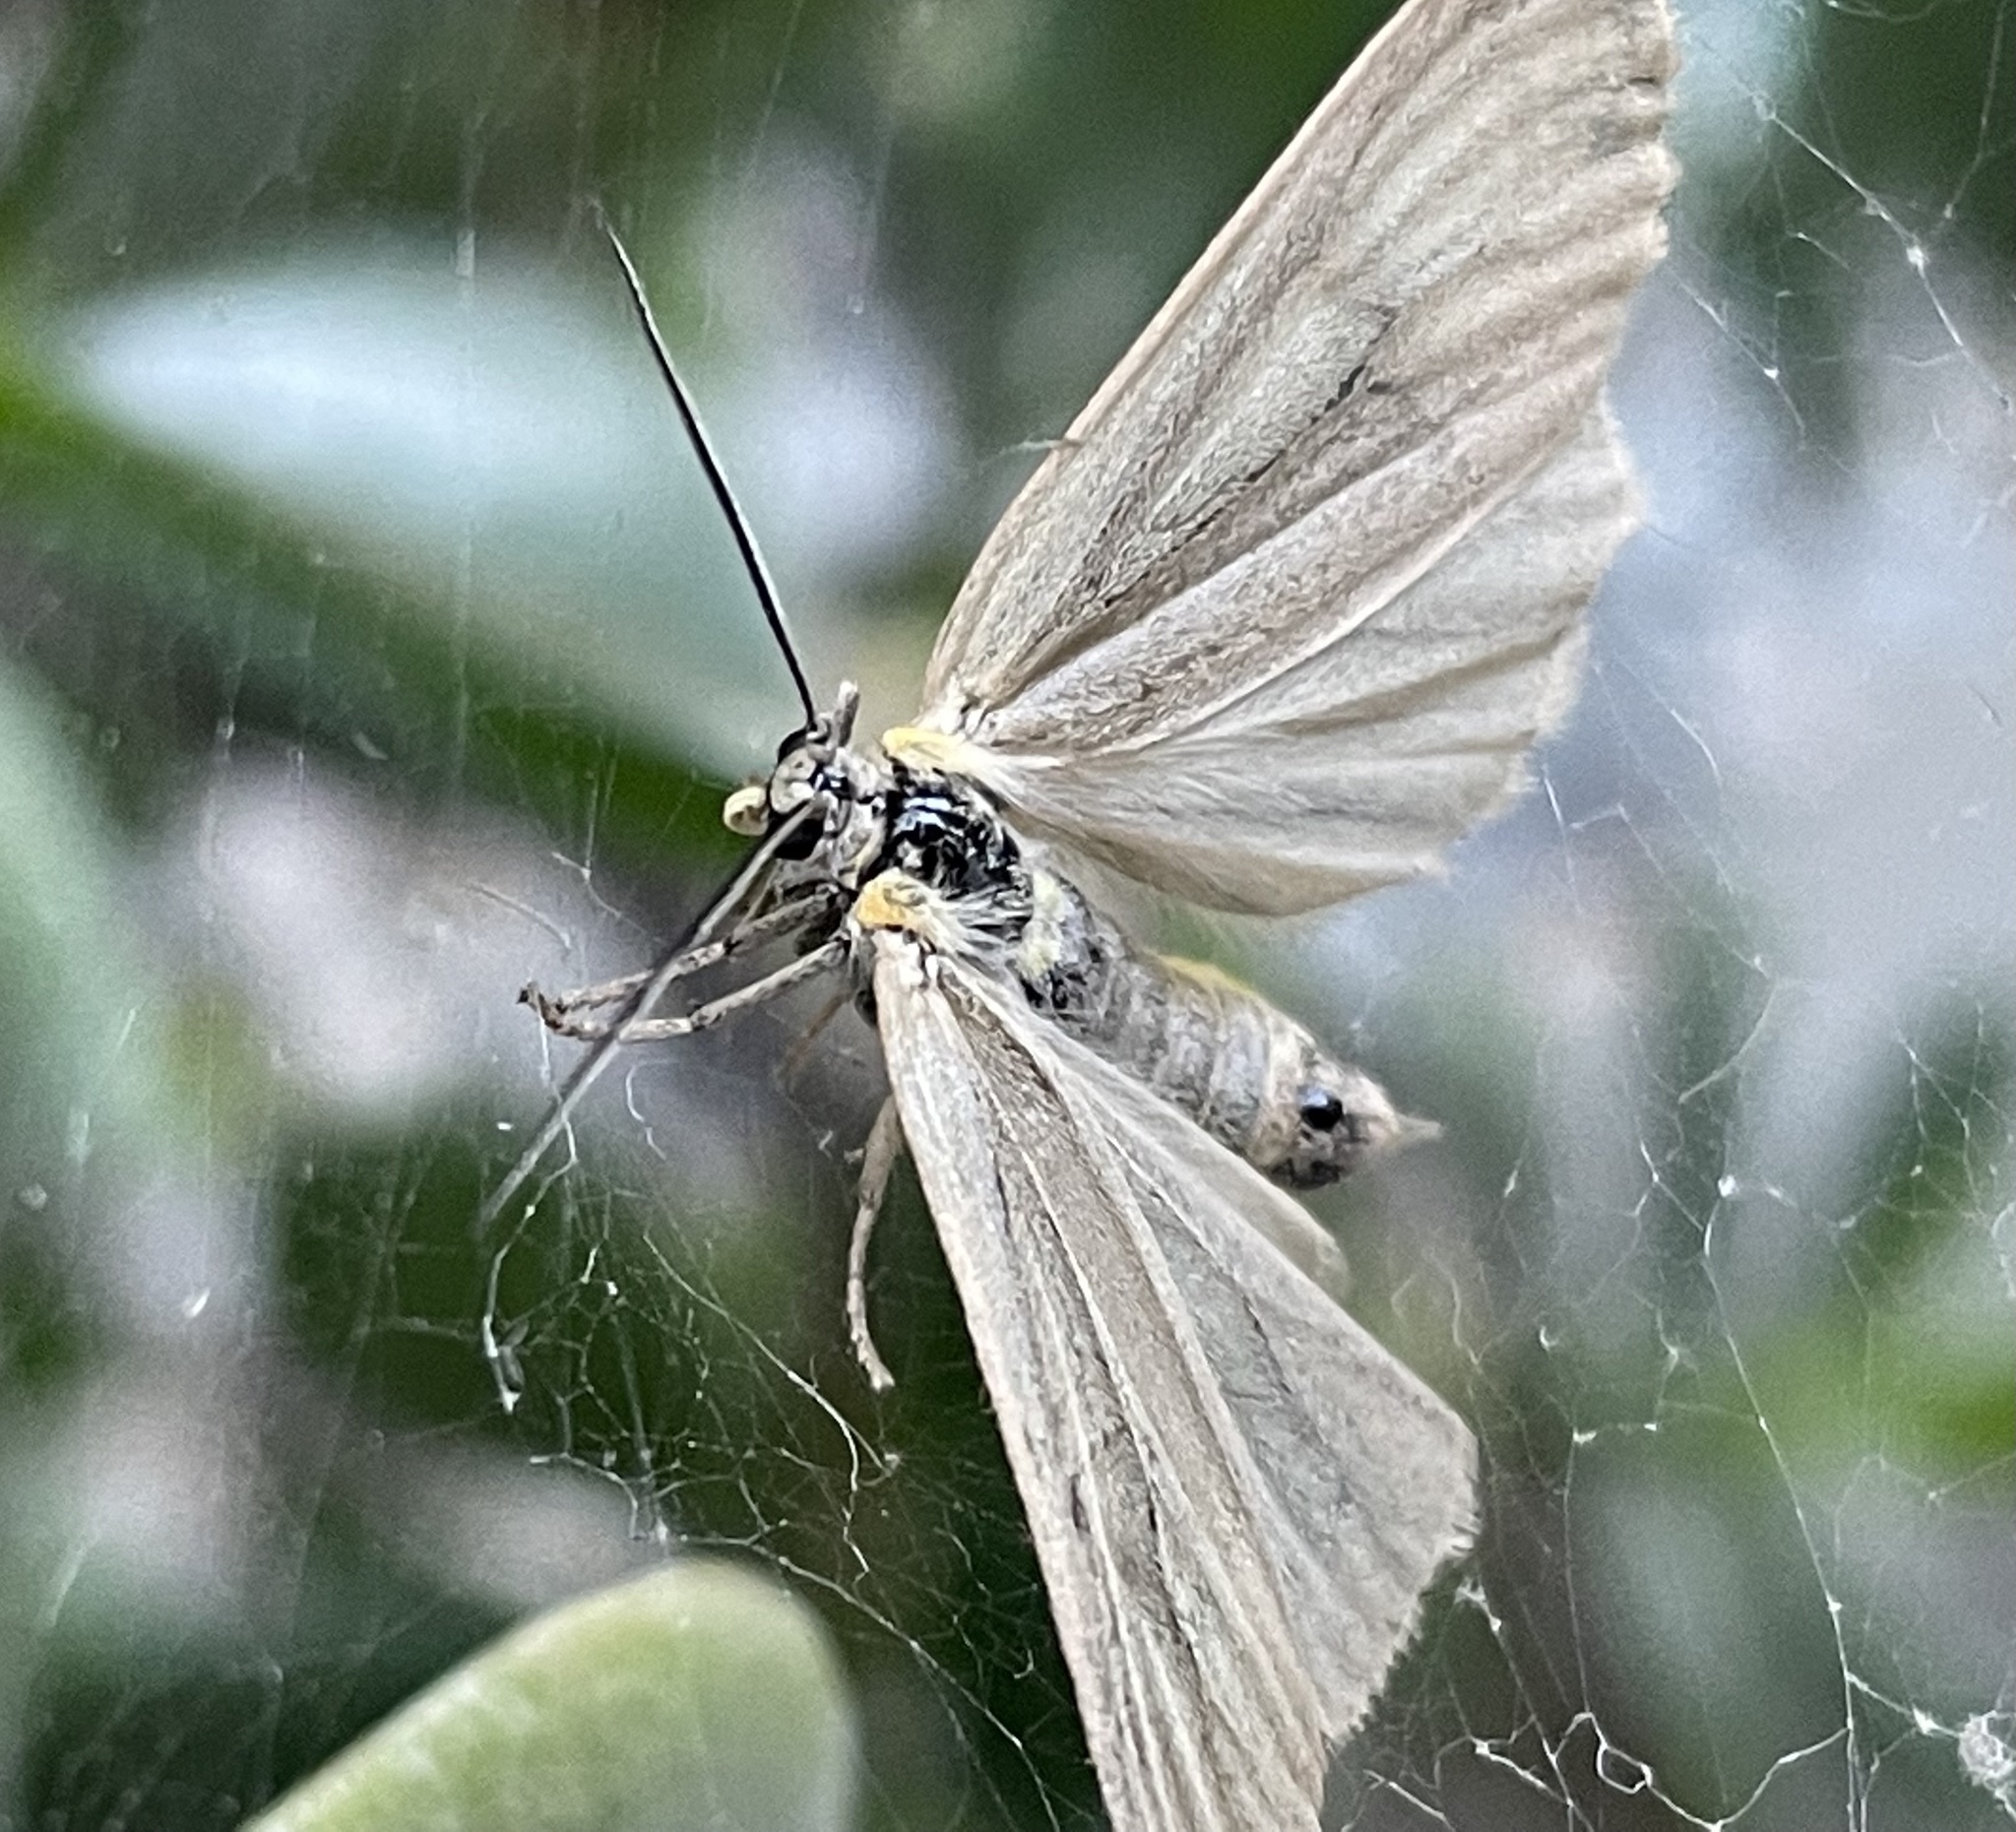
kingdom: Animalia
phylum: Arthropoda
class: Insecta
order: Lepidoptera
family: Notodontidae
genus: Phryganidia
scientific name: Phryganidia californica
